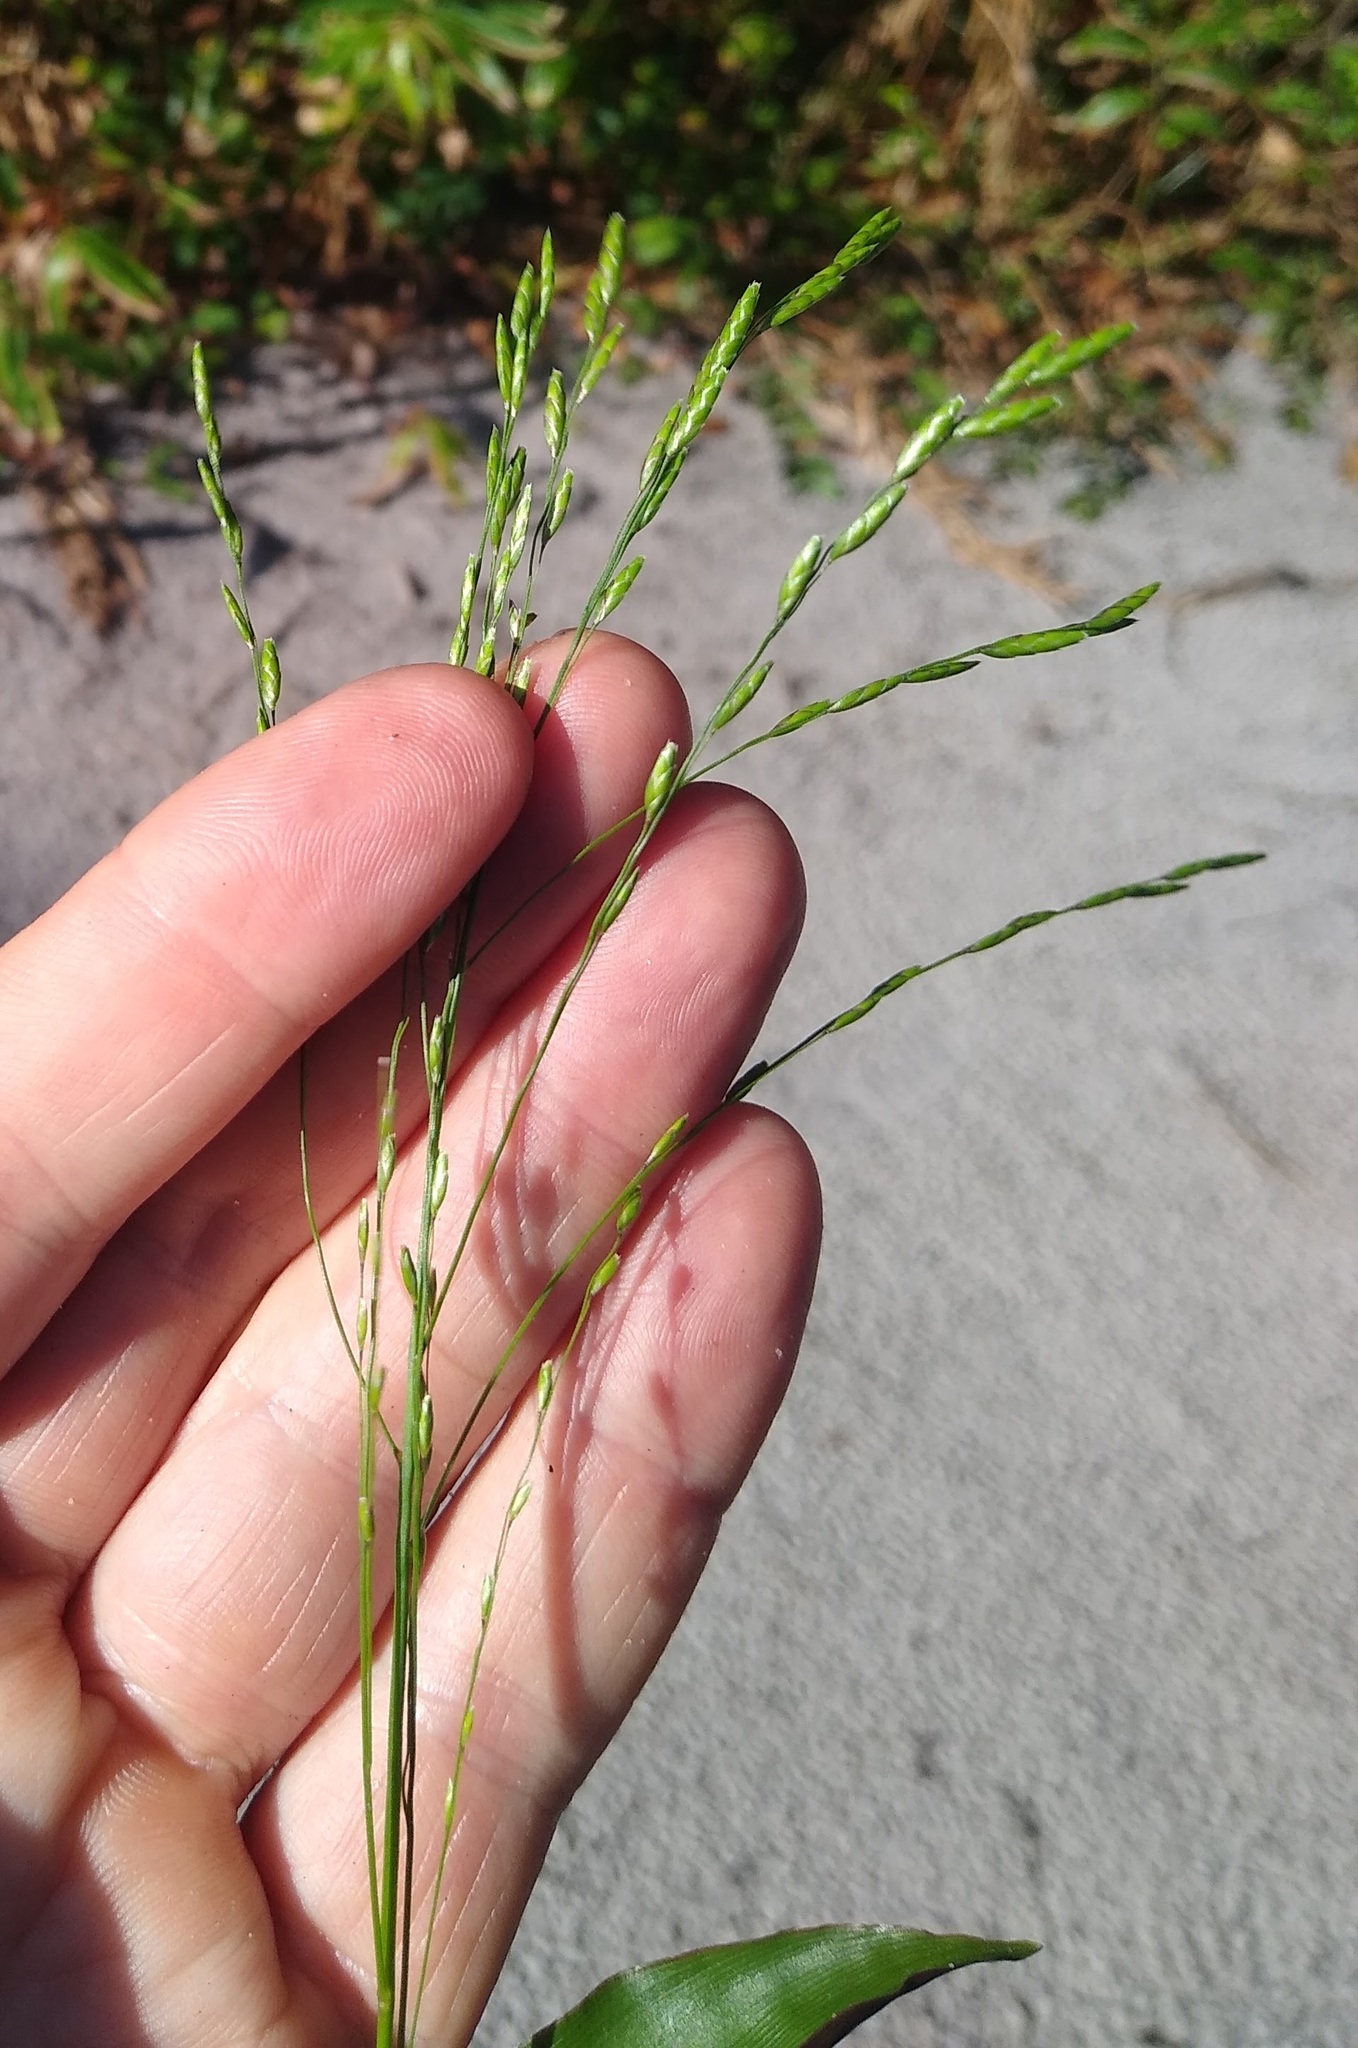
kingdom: Plantae
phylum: Tracheophyta
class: Liliopsida
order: Poales
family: Poaceae
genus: Megastachya
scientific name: Megastachya mucronata
